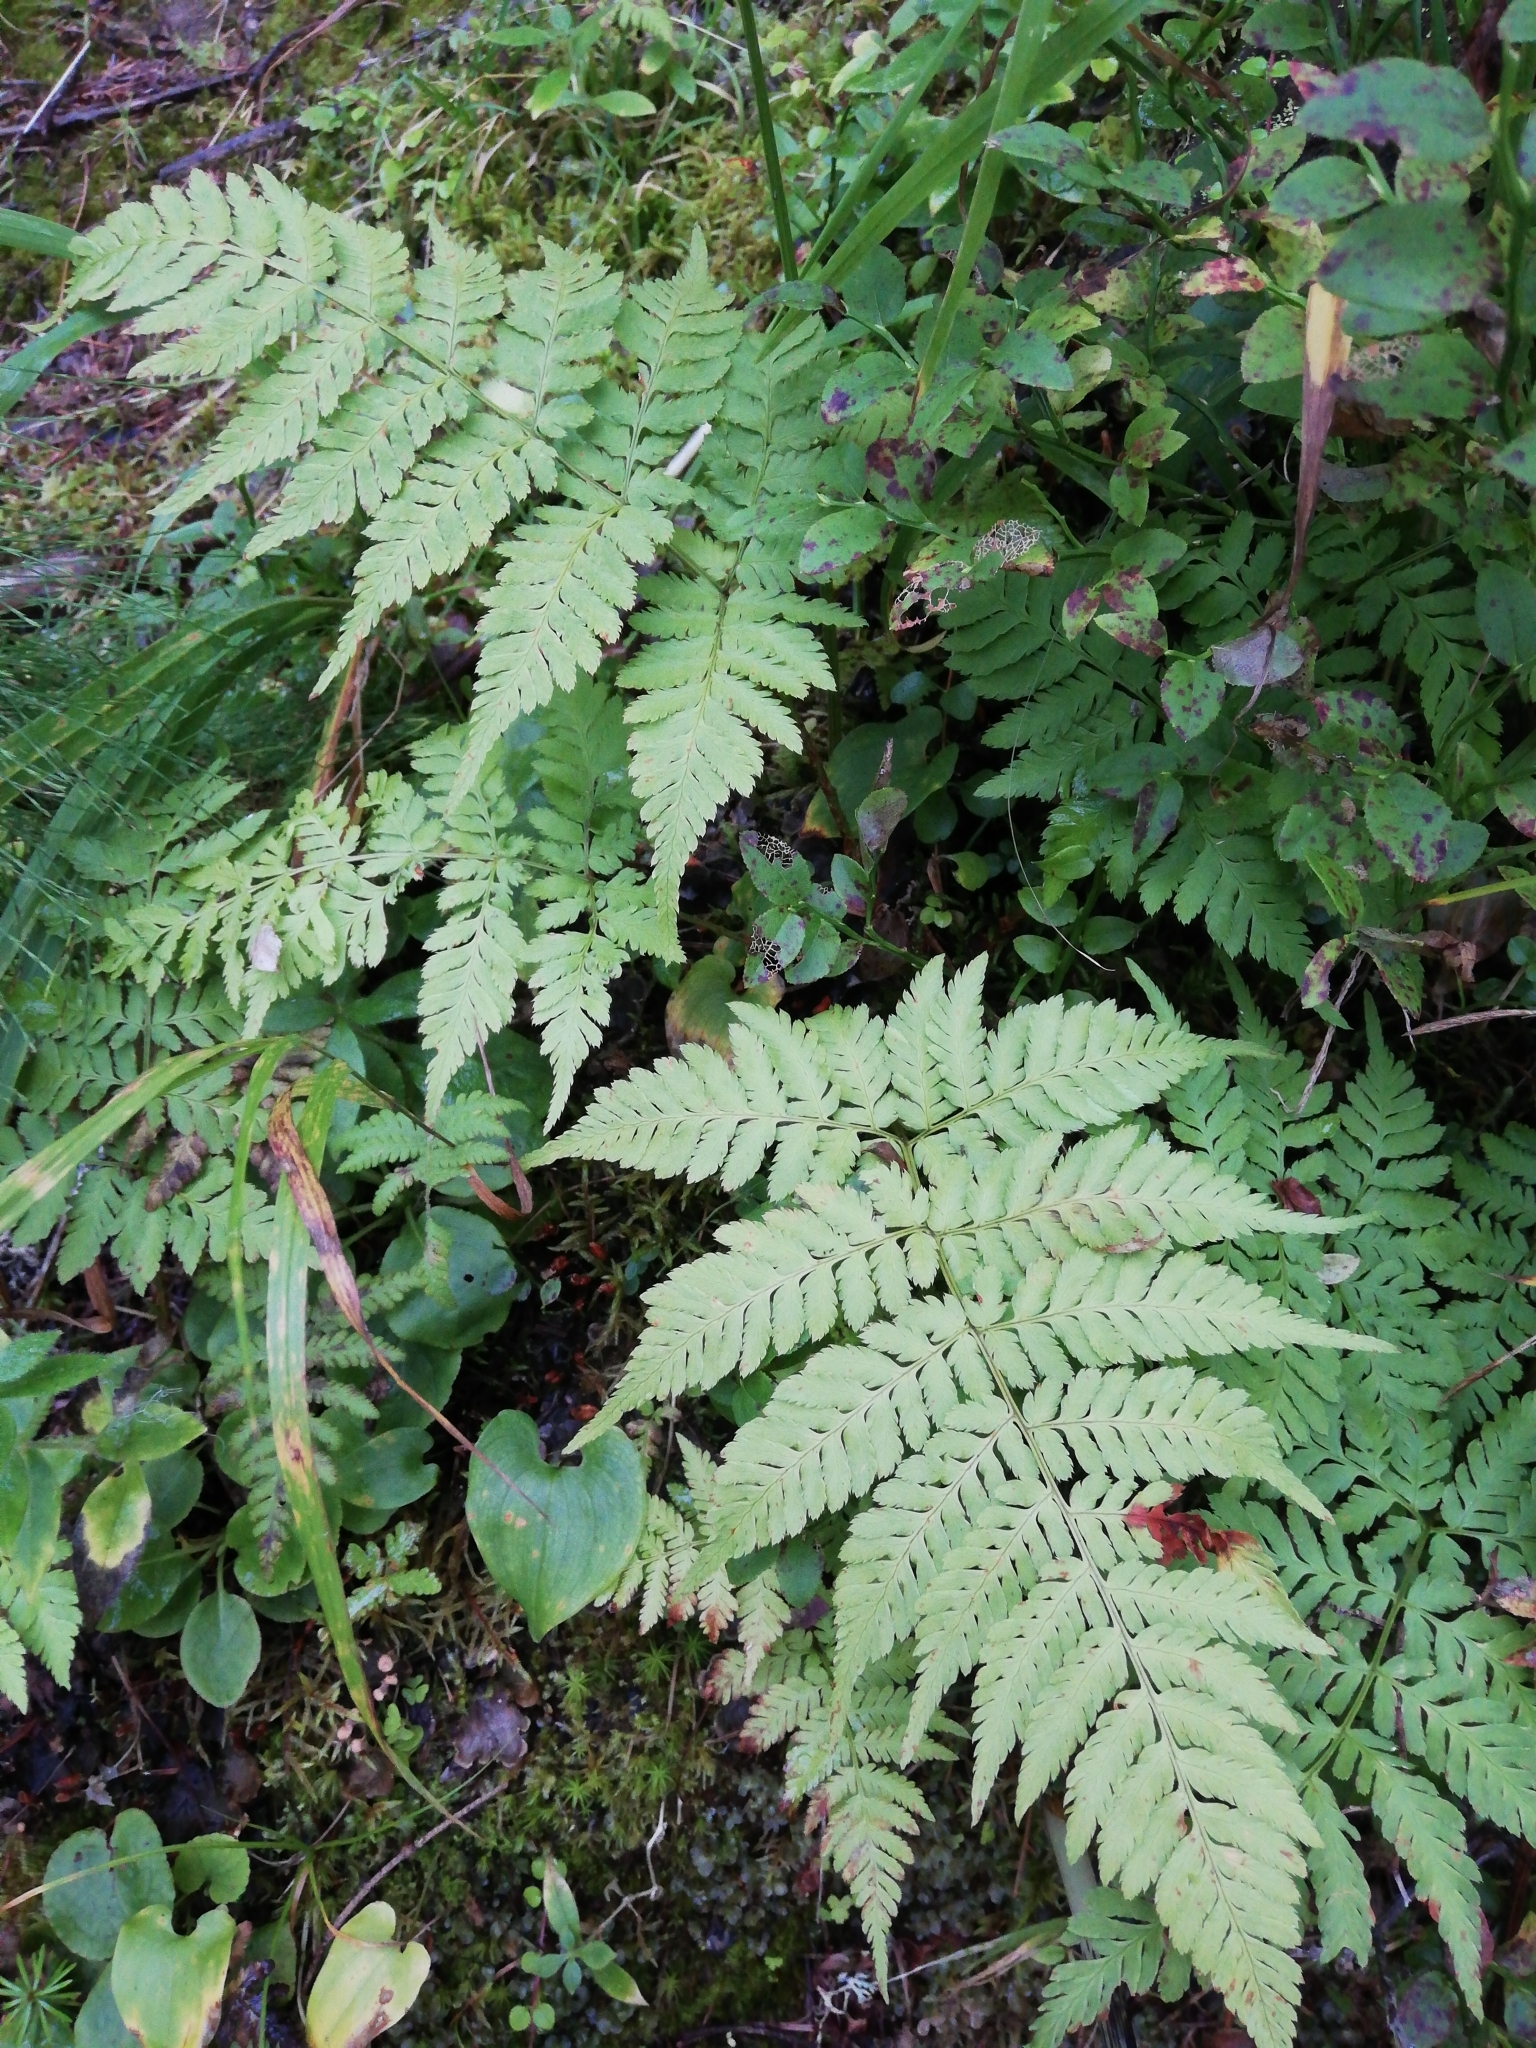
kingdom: Plantae
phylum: Tracheophyta
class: Polypodiopsida
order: Polypodiales
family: Dryopteridaceae
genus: Dryopteris
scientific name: Dryopteris carthusiana
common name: Narrow buckler-fern
